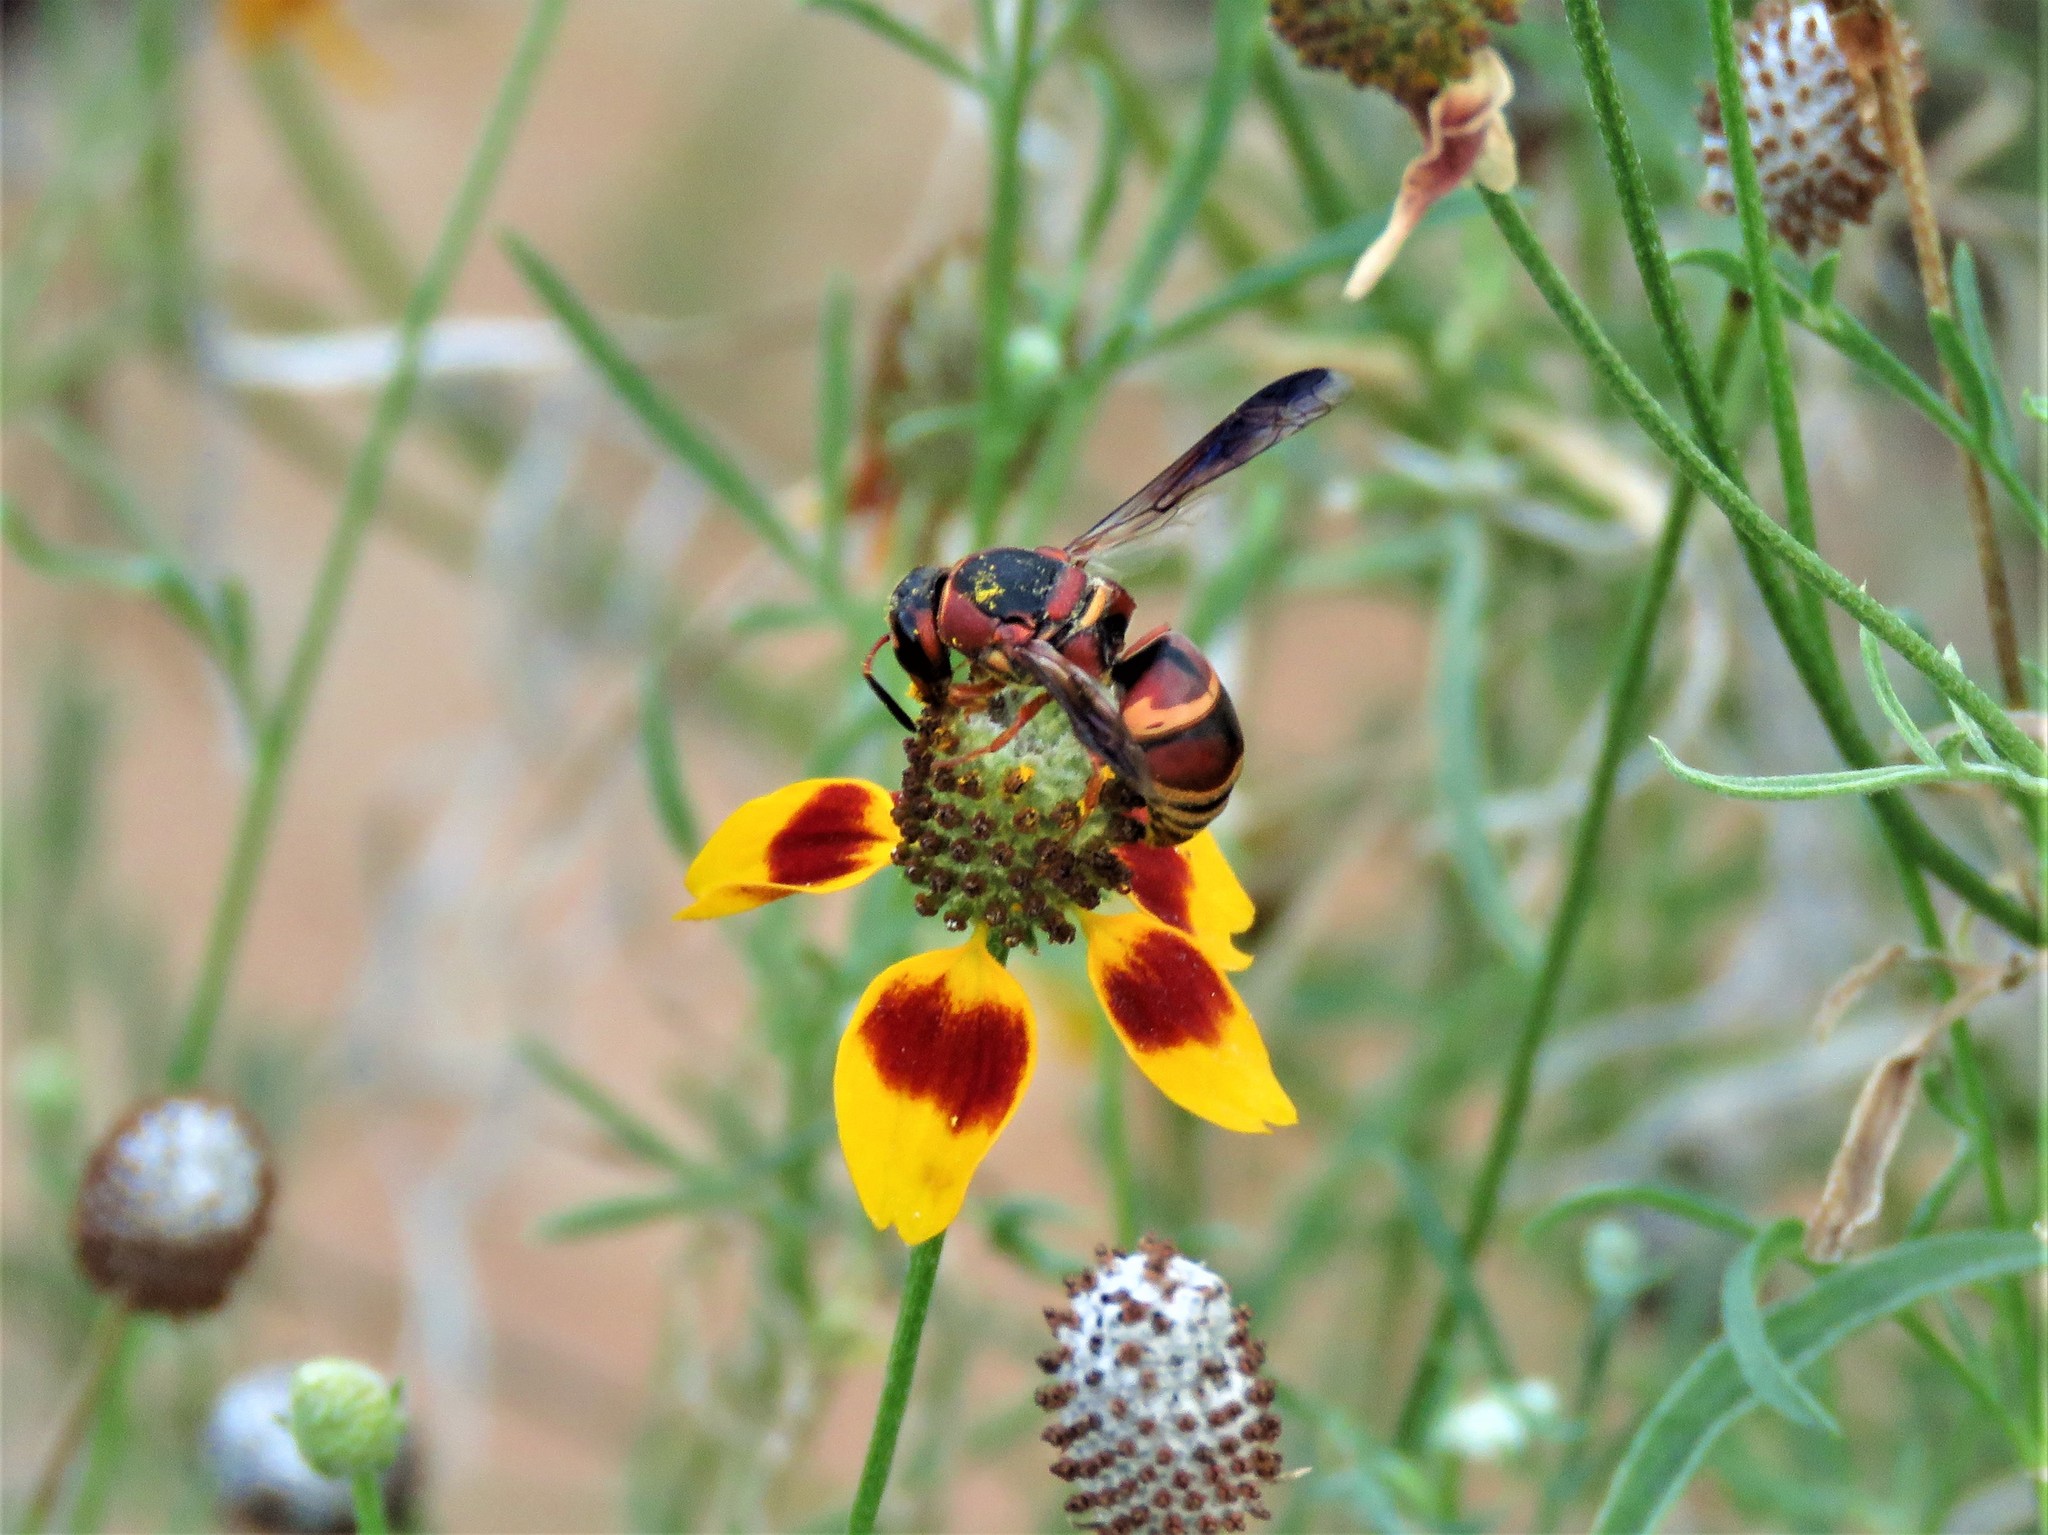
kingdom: Animalia
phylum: Arthropoda
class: Insecta
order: Hymenoptera
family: Eumenidae
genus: Euodynerus
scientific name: Euodynerus hidalgo
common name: Wasp
